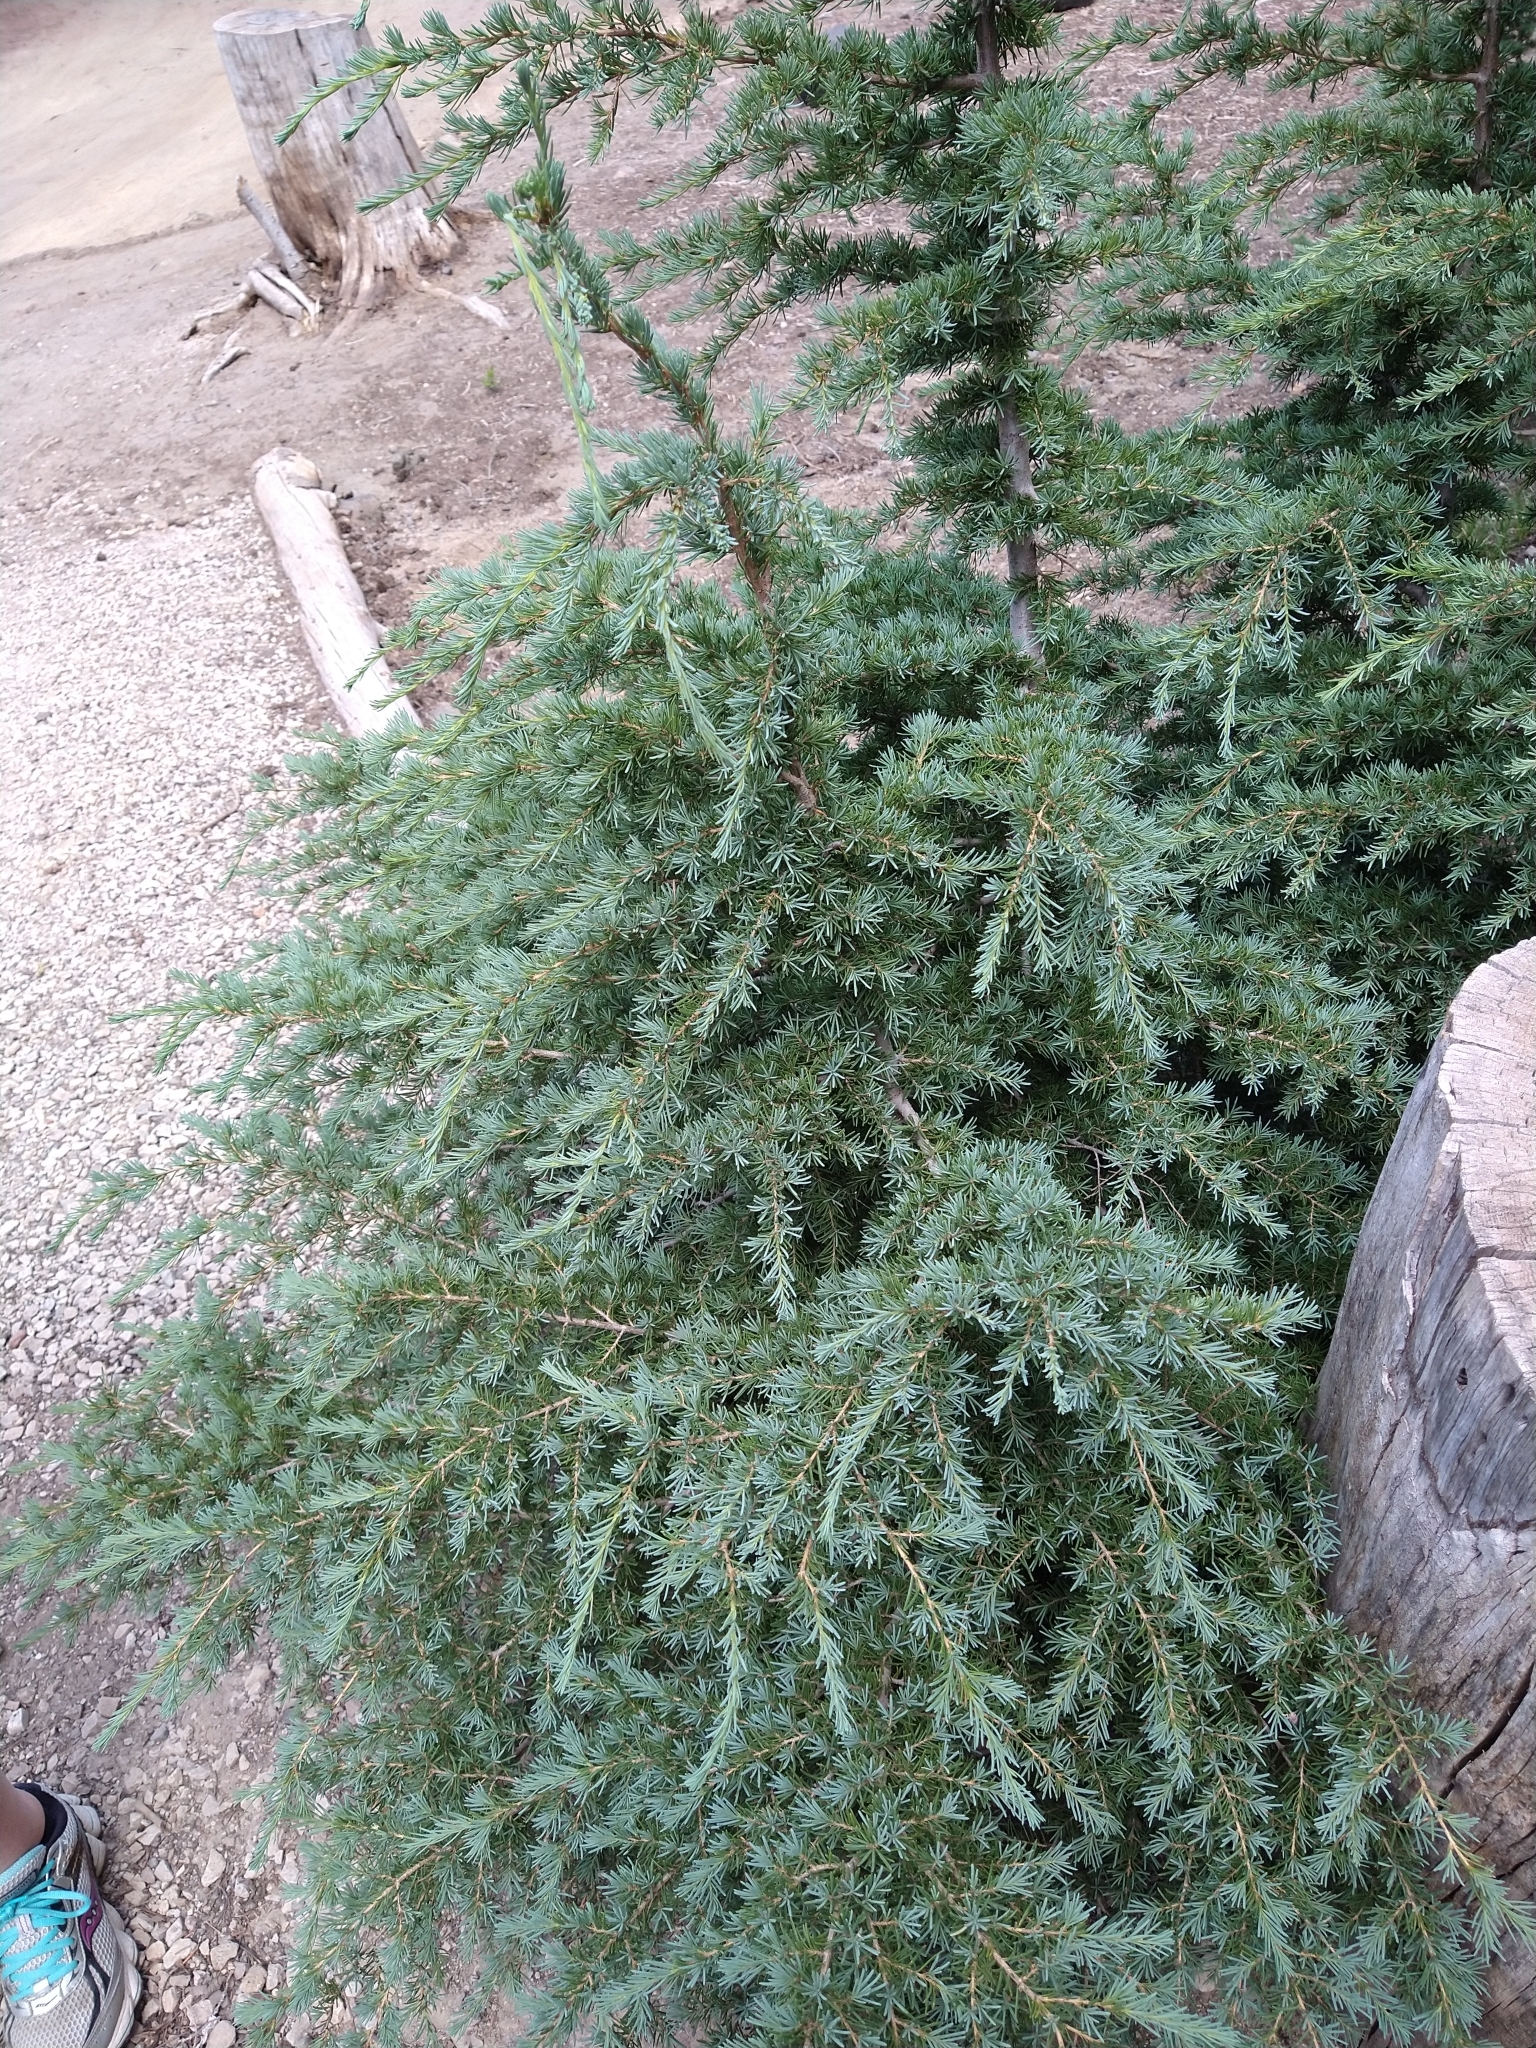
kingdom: Plantae
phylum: Tracheophyta
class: Pinopsida
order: Pinales
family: Pinaceae
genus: Tsuga
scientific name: Tsuga mertensiana
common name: Mountain hemlock
